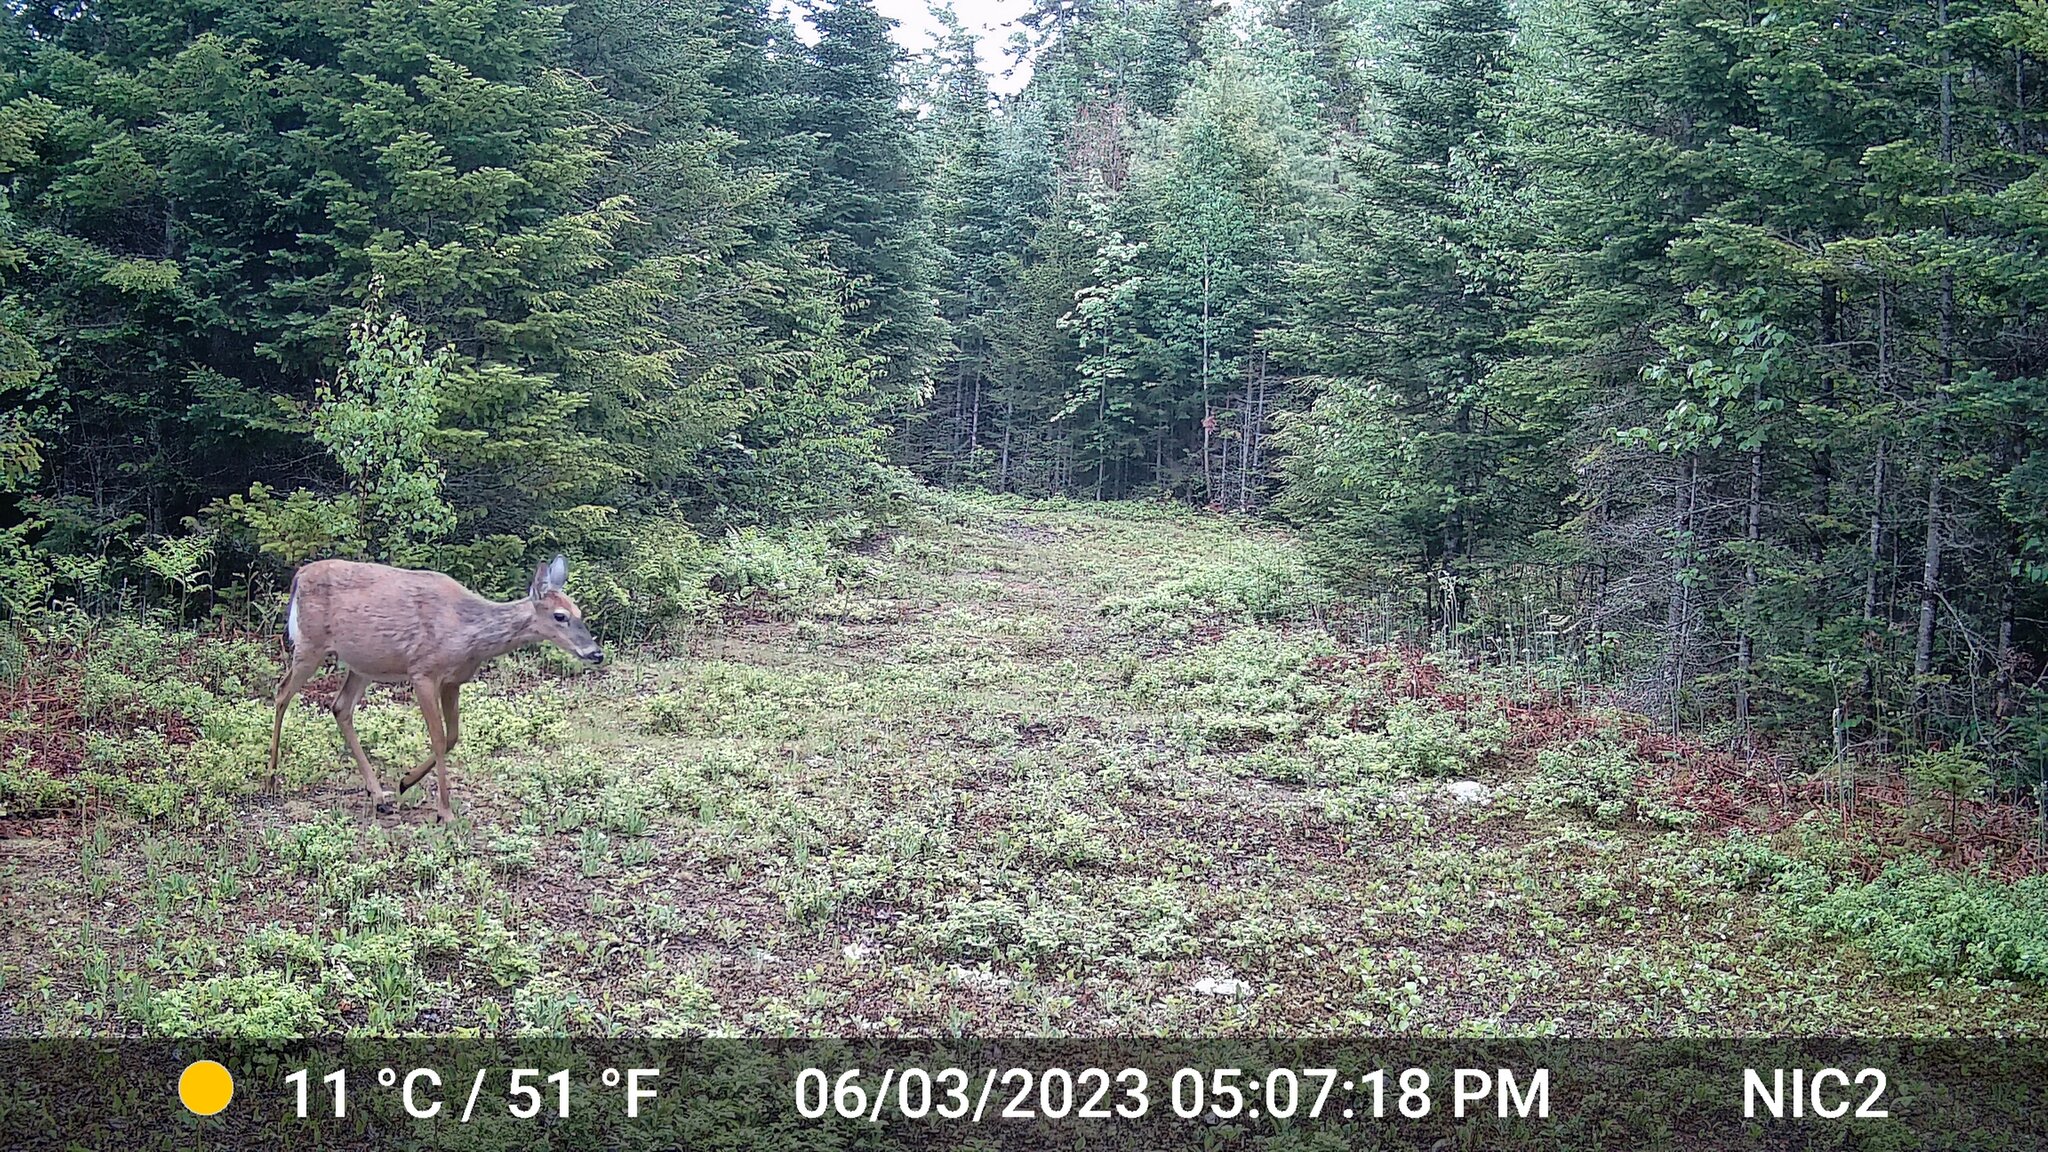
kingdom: Animalia
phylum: Chordata
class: Mammalia
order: Artiodactyla
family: Cervidae
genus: Odocoileus
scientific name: Odocoileus virginianus
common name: White-tailed deer
